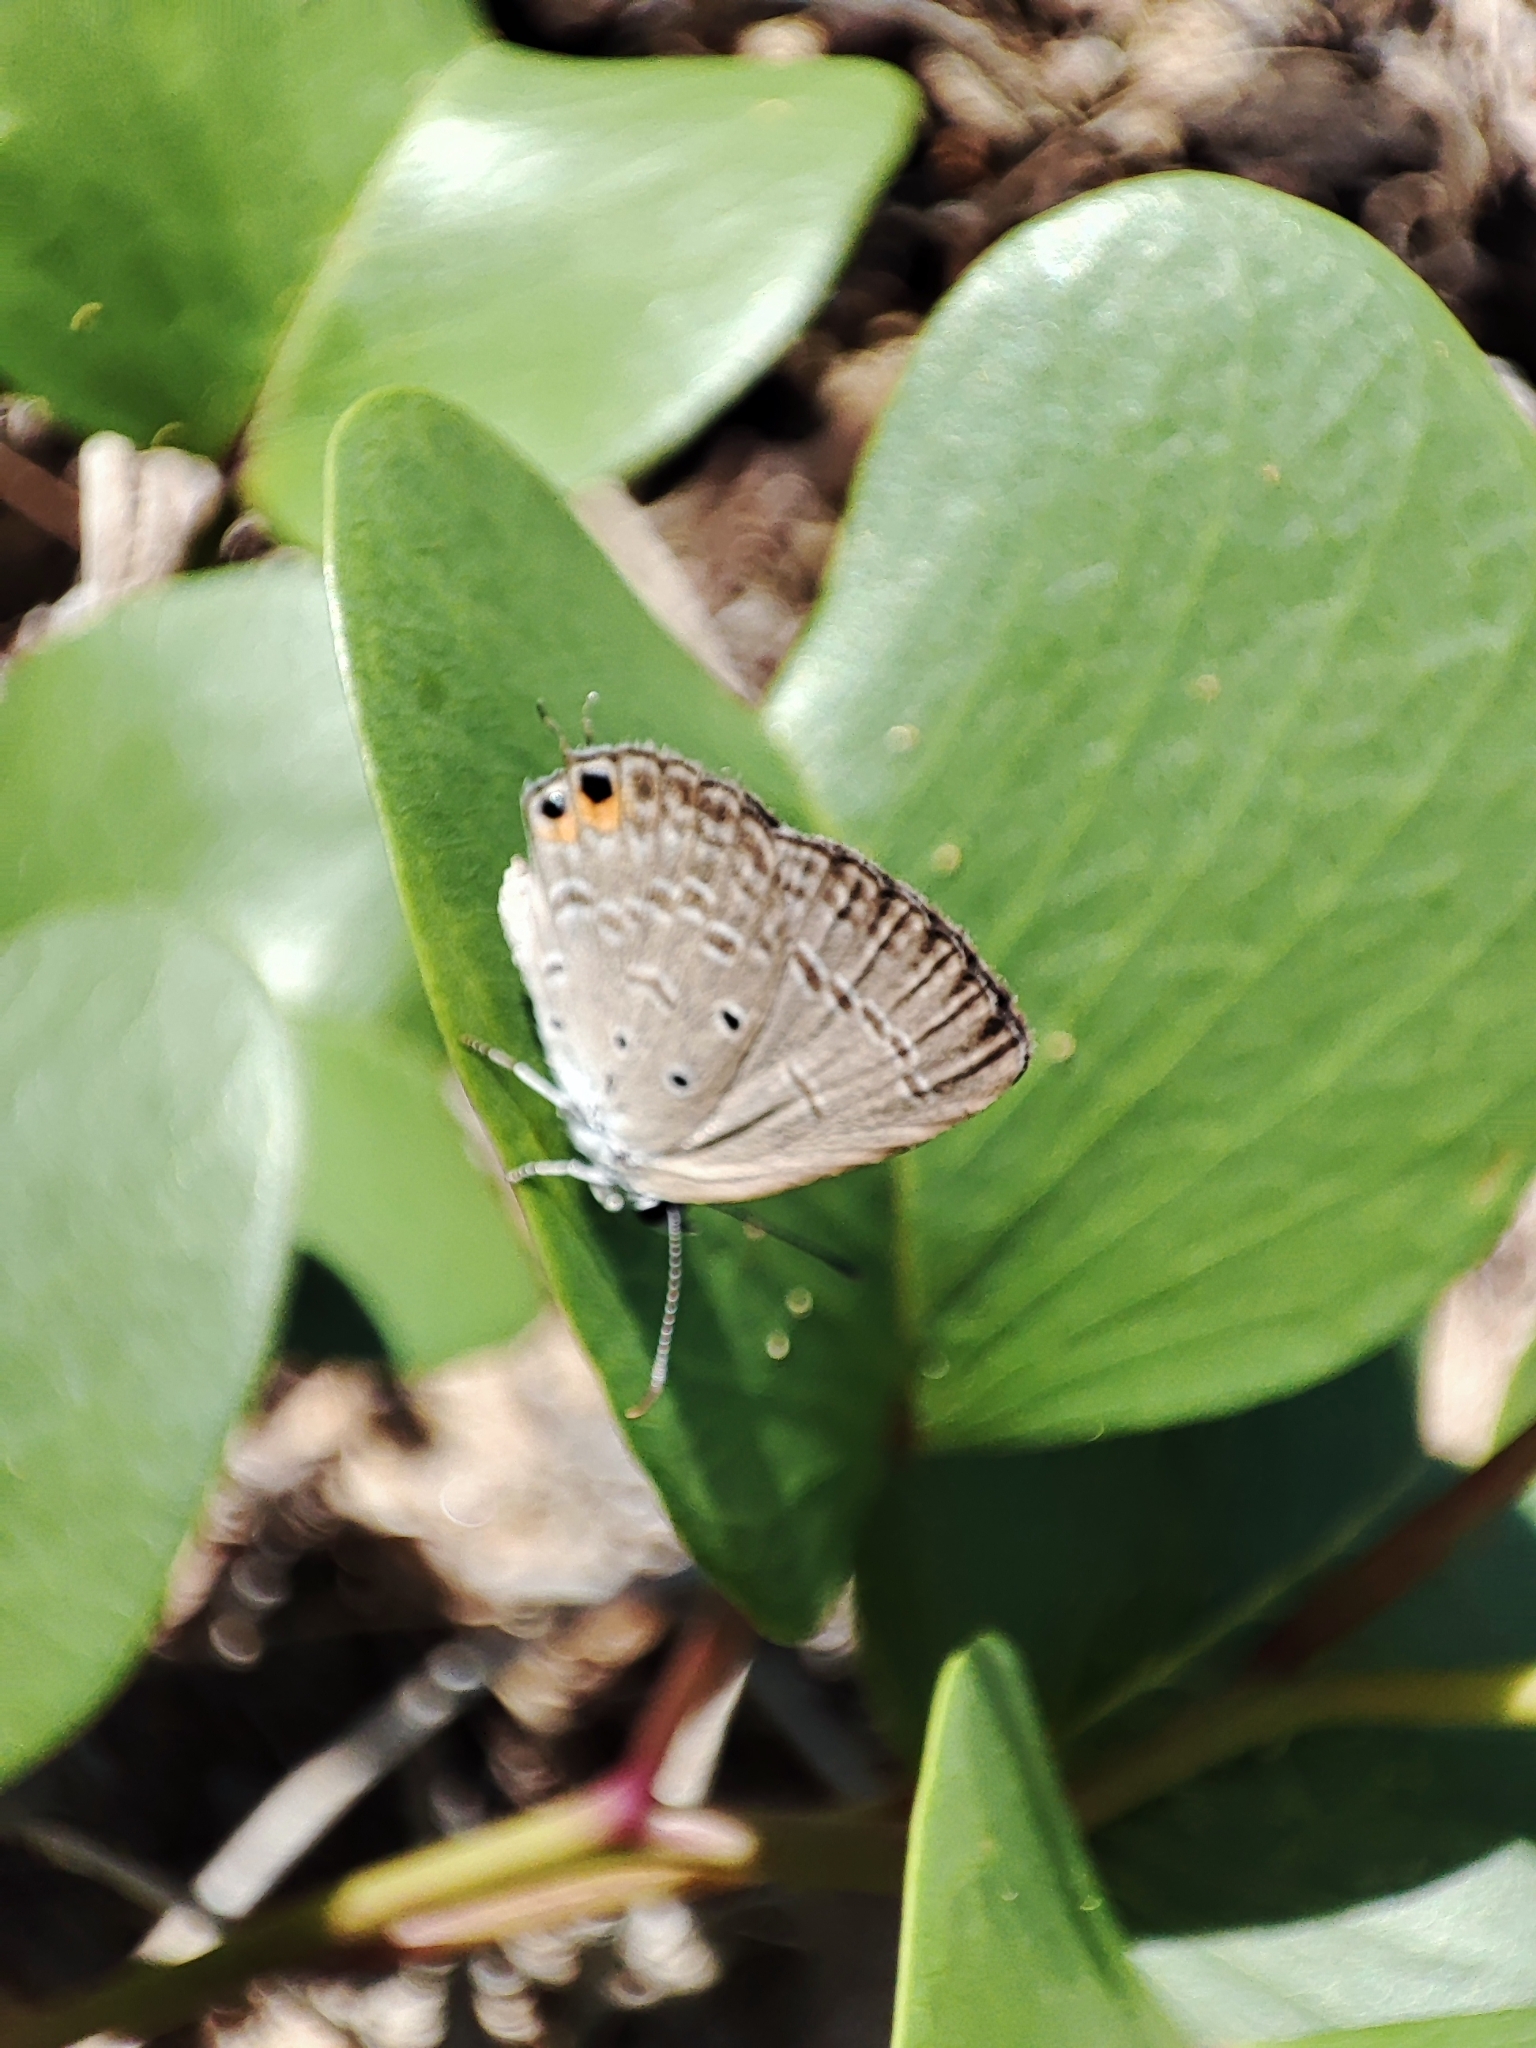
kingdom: Animalia
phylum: Arthropoda
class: Insecta
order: Lepidoptera
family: Lycaenidae
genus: Euchrysops
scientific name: Euchrysops cnejus
